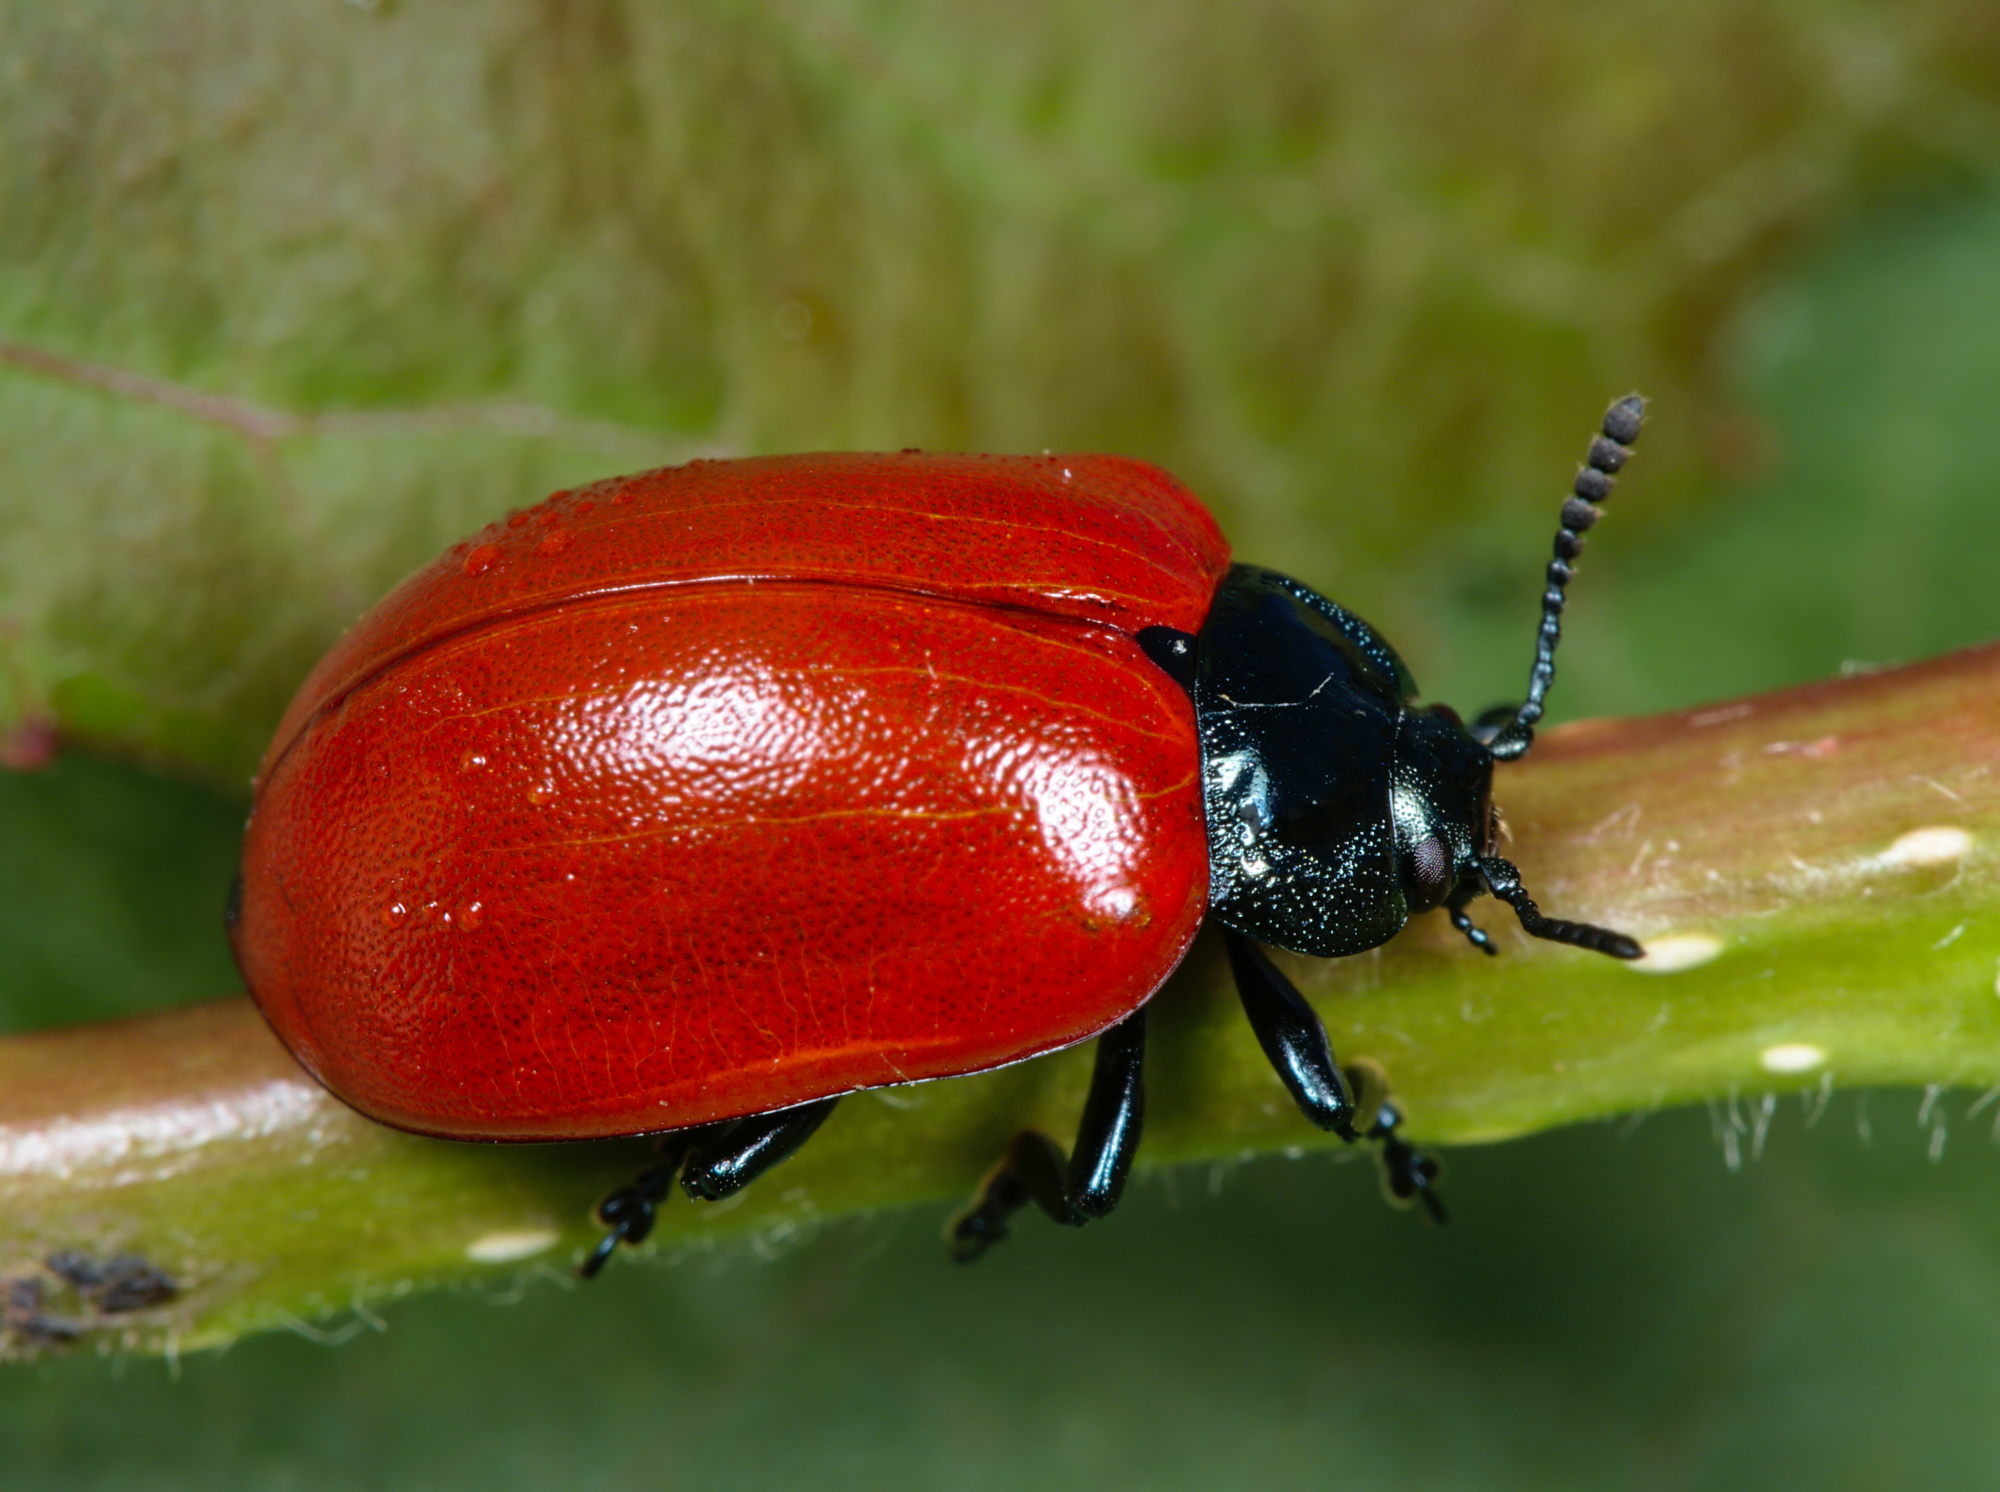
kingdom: Animalia
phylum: Arthropoda
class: Insecta
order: Coleoptera
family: Chrysomelidae
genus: Chrysomela
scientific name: Chrysomela populi
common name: Red poplar leaf beetle
